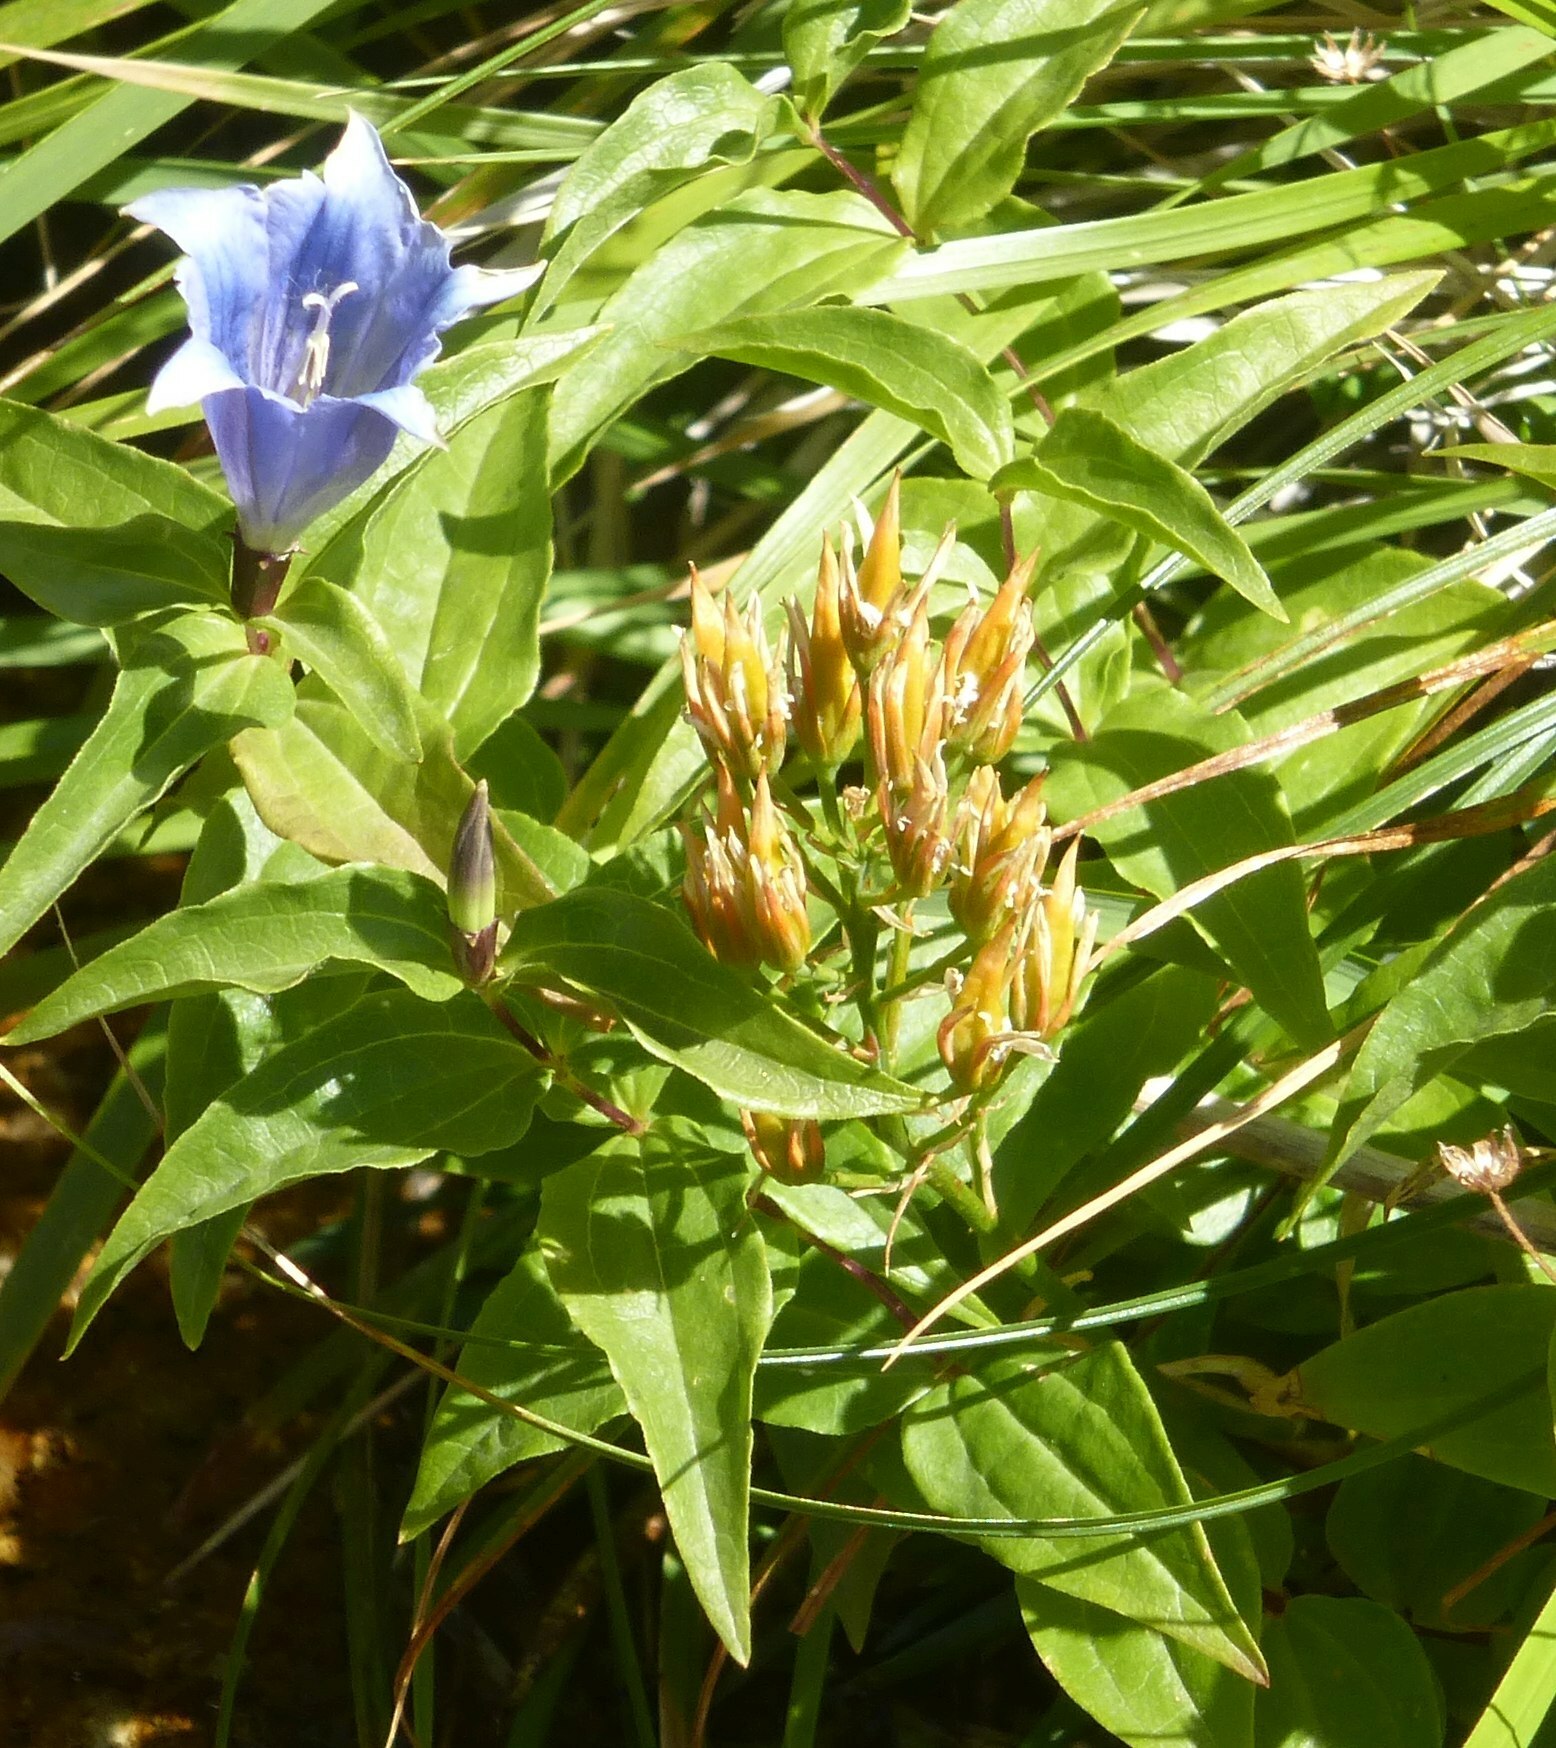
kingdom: Plantae
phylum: Tracheophyta
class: Magnoliopsida
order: Gentianales
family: Gentianaceae
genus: Gentiana
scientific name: Gentiana asclepiadea
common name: Willow gentian
